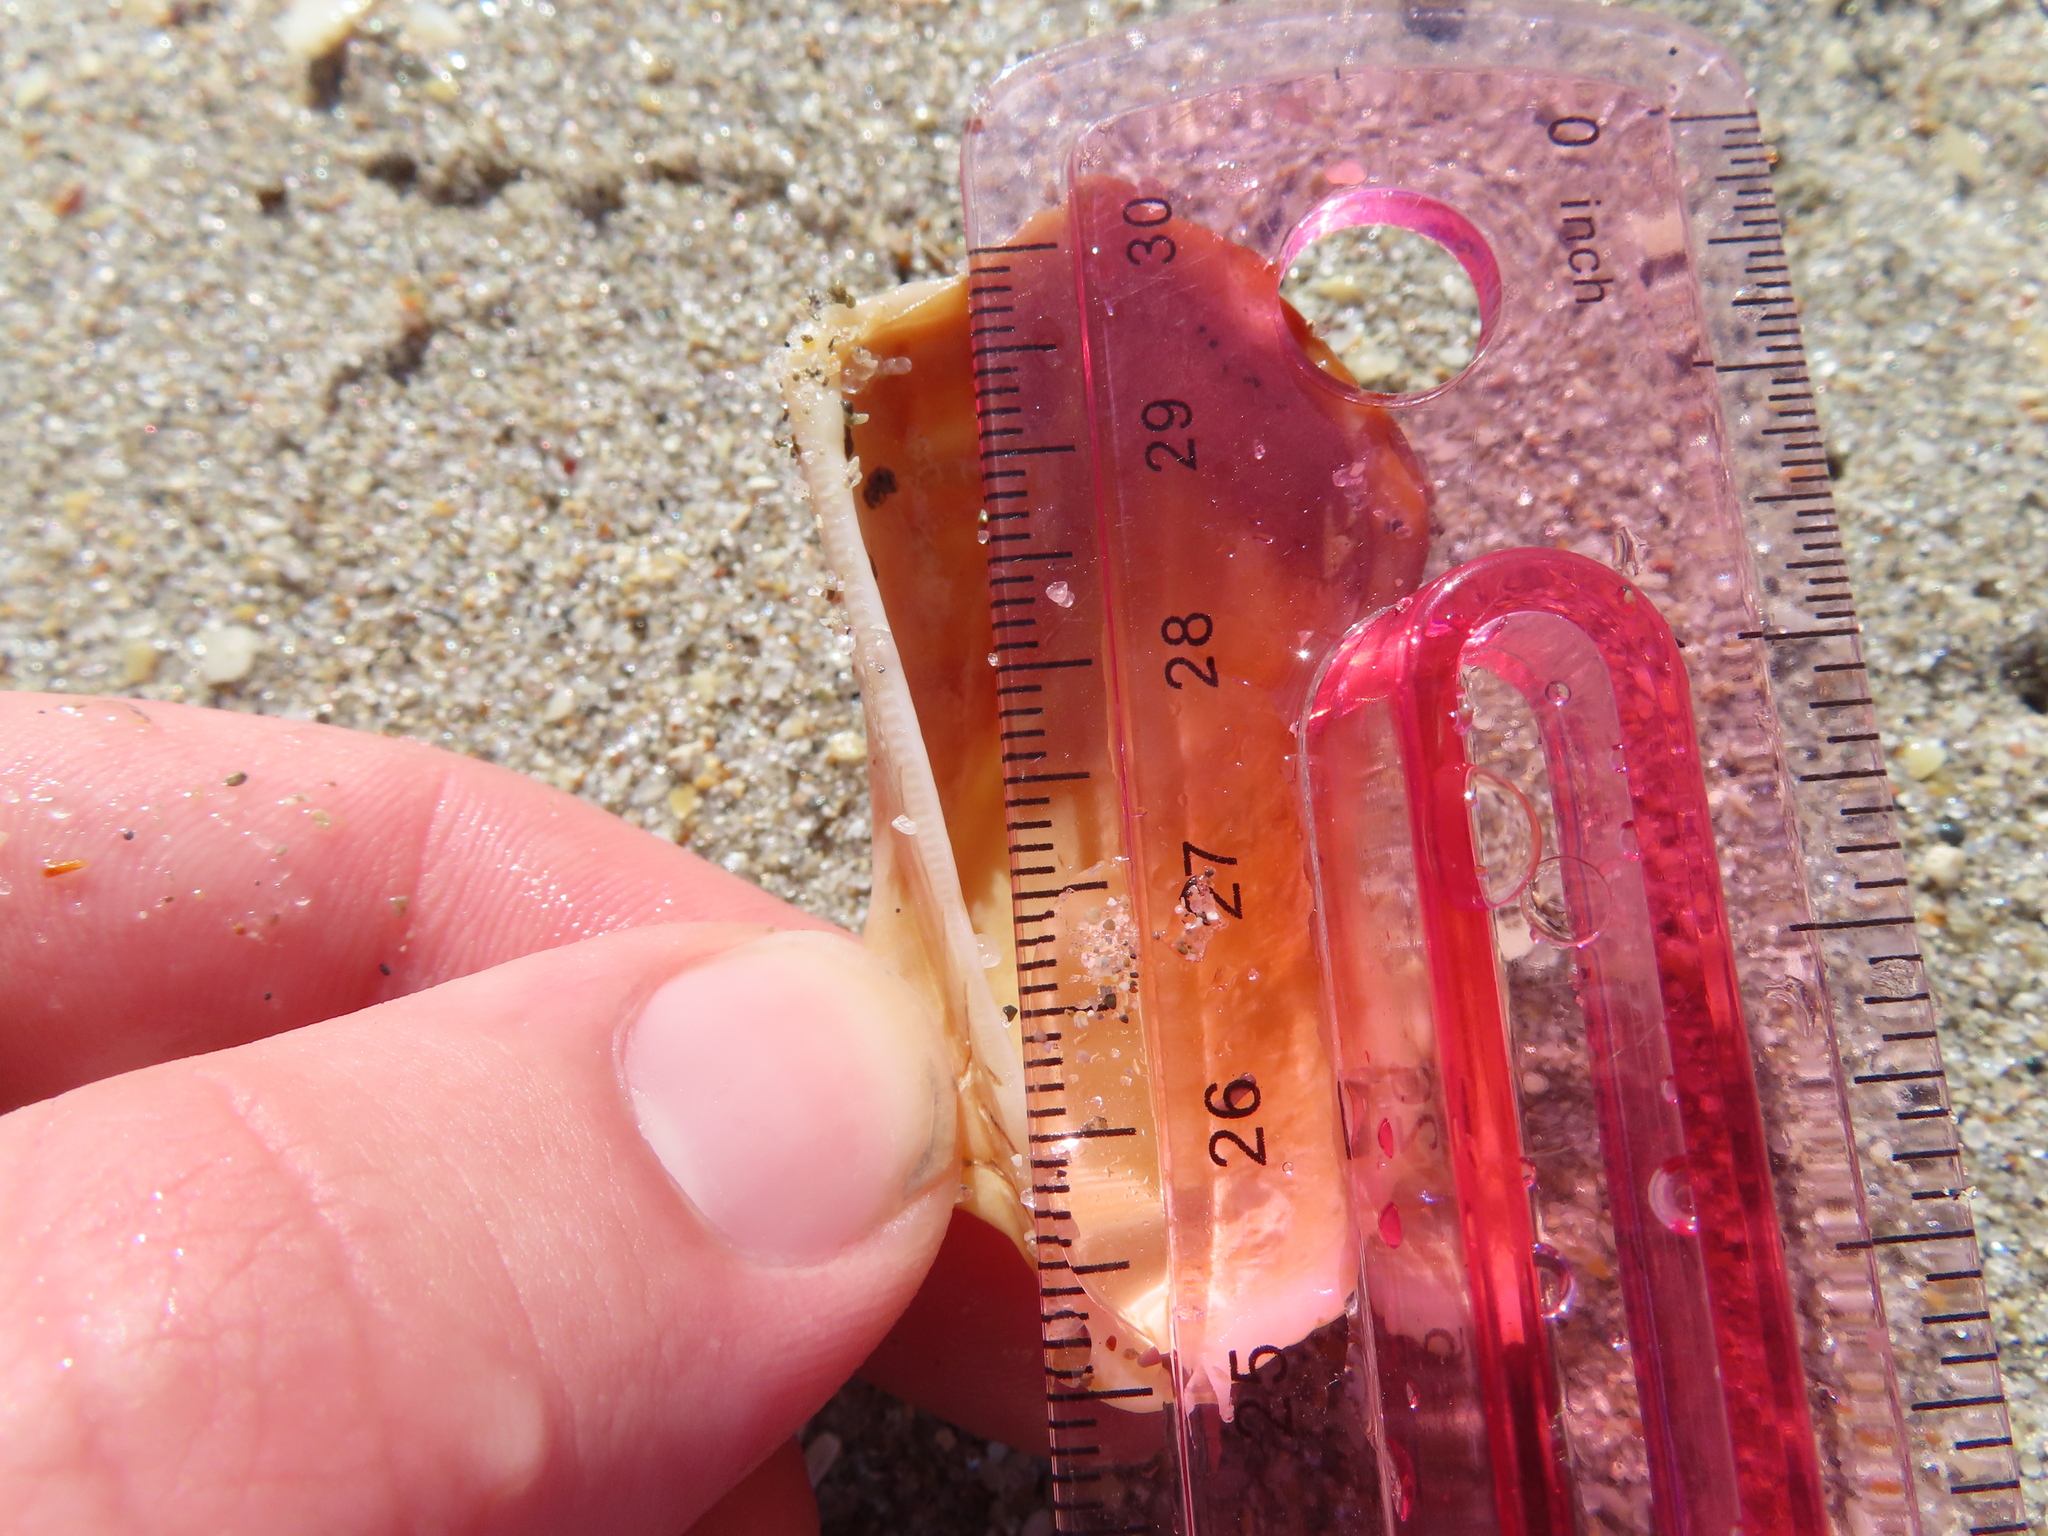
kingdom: Animalia
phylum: Mollusca
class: Bivalvia
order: Arcida
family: Arcidae
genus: Lamarcka
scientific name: Lamarcka imbricata
